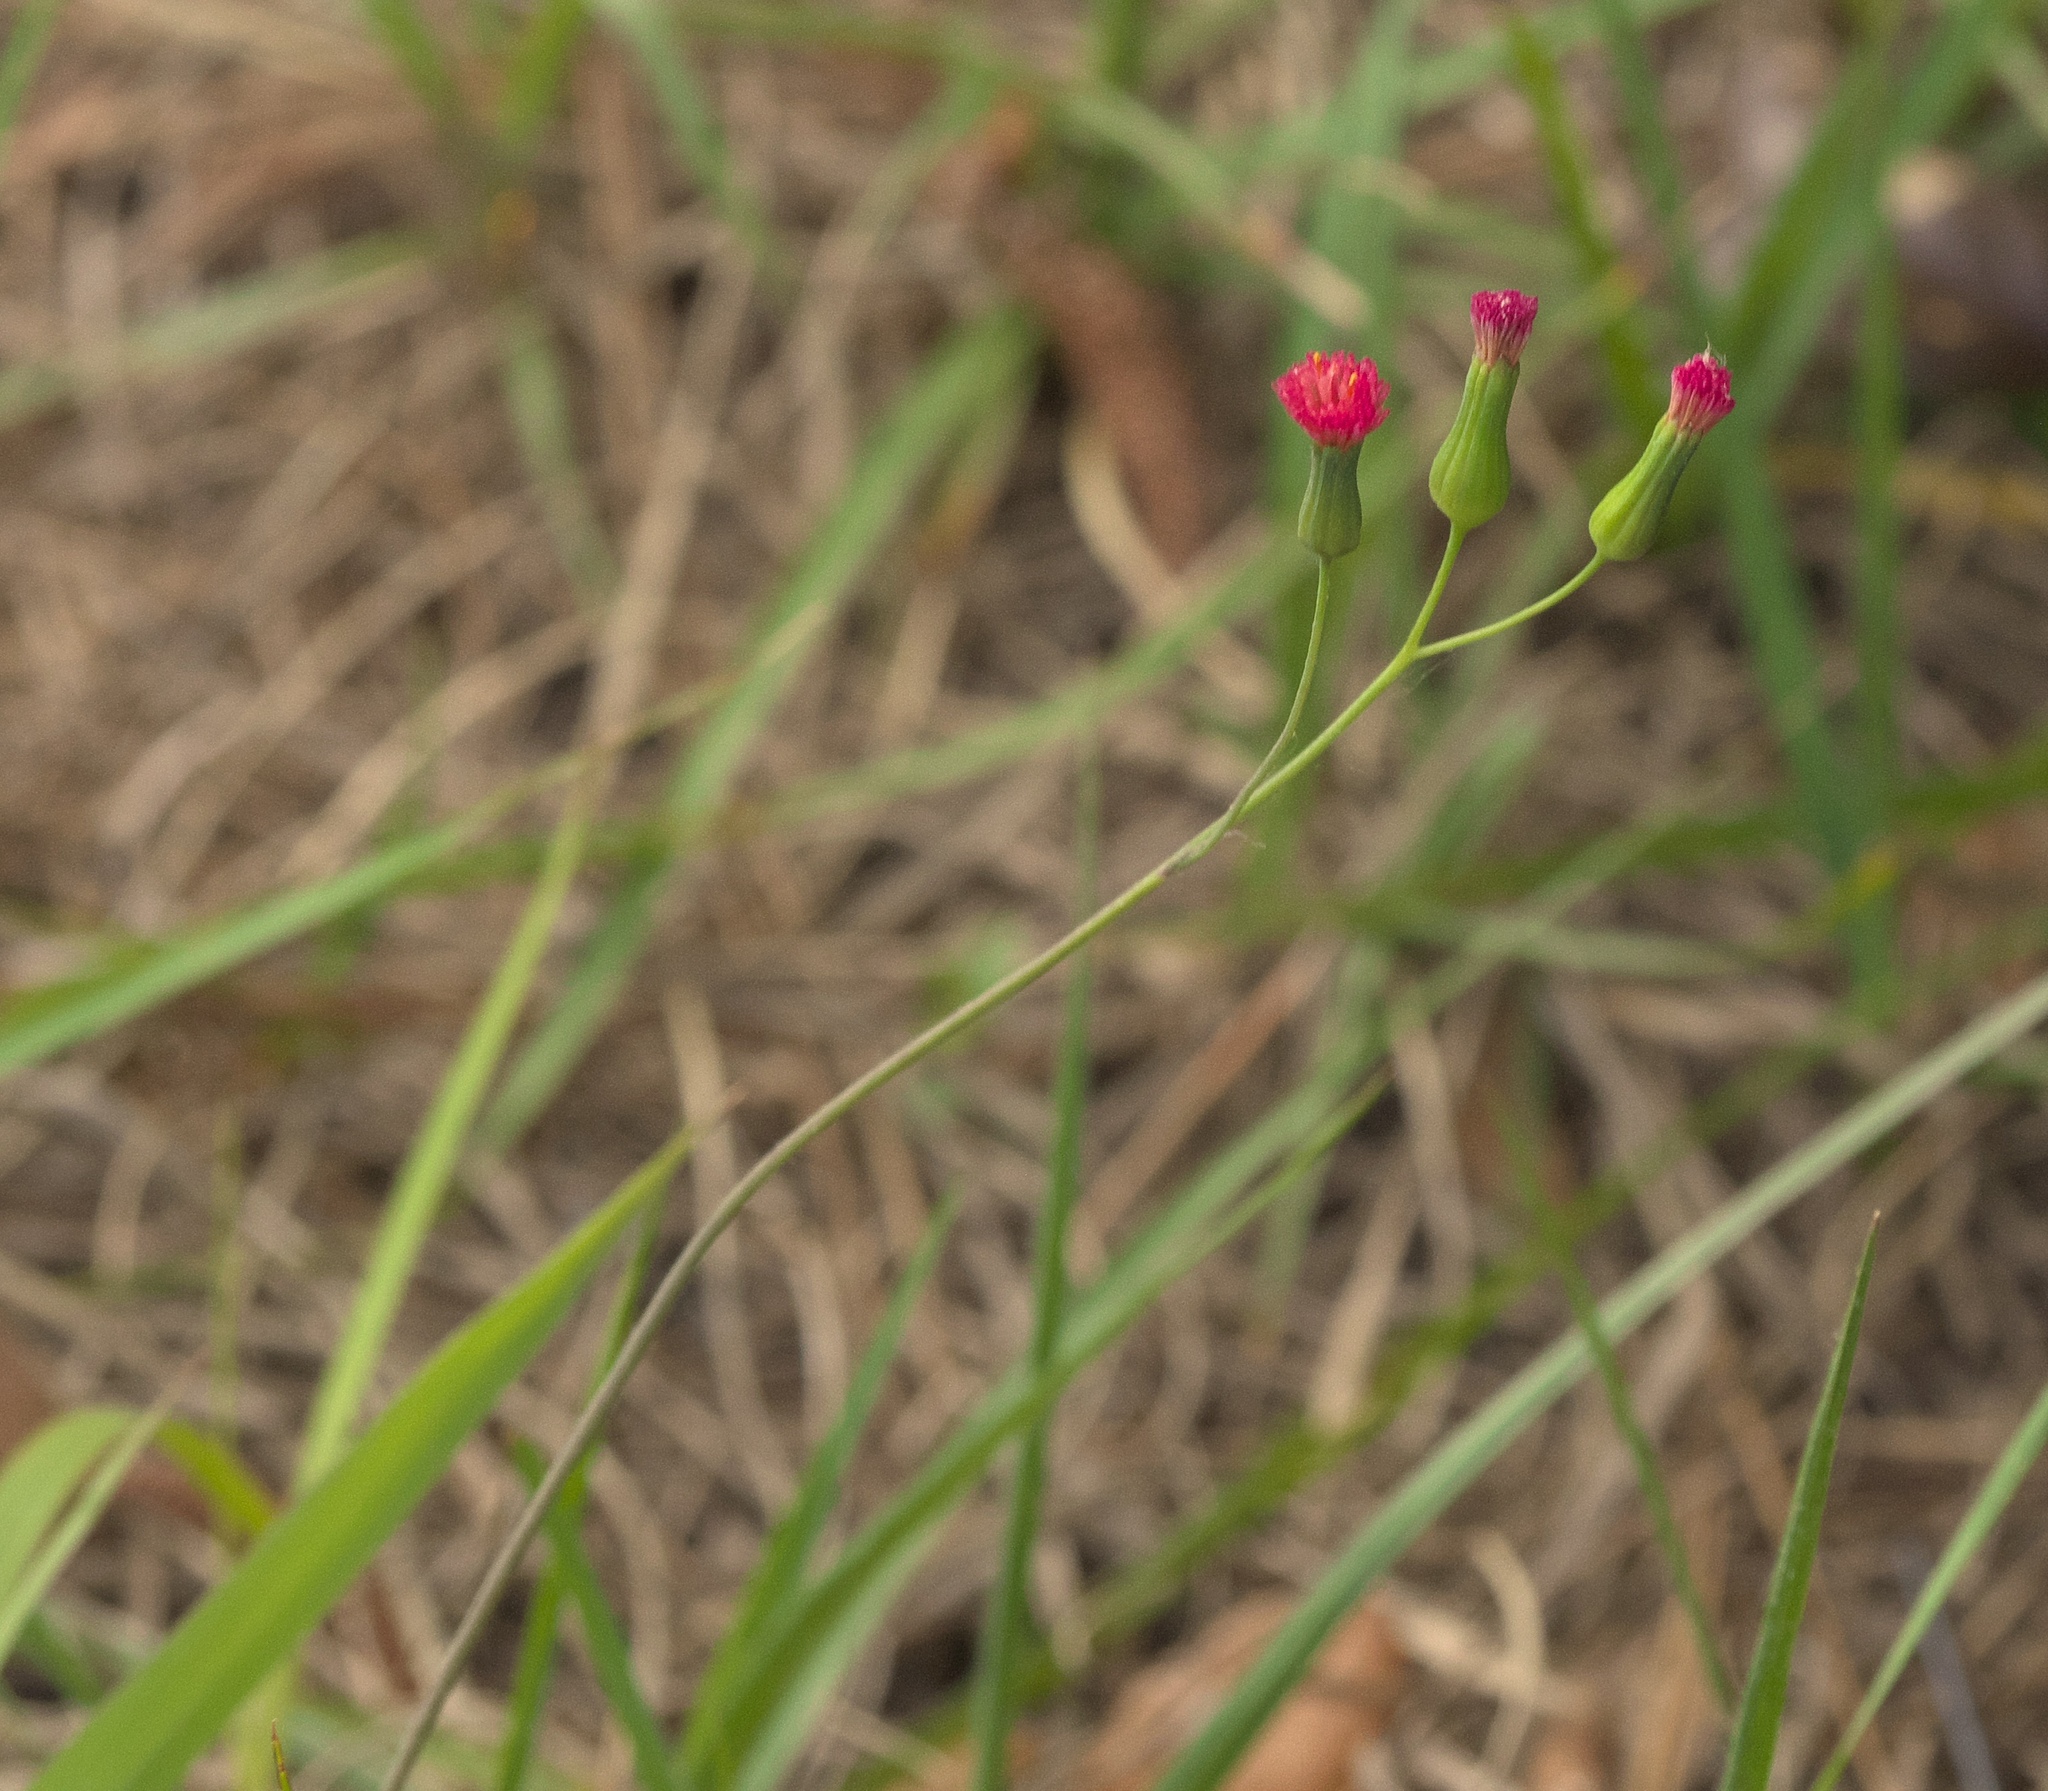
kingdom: Plantae
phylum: Tracheophyta
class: Magnoliopsida
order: Asterales
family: Asteraceae
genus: Emilia
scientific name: Emilia fosbergii
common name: Florida tasselflower
